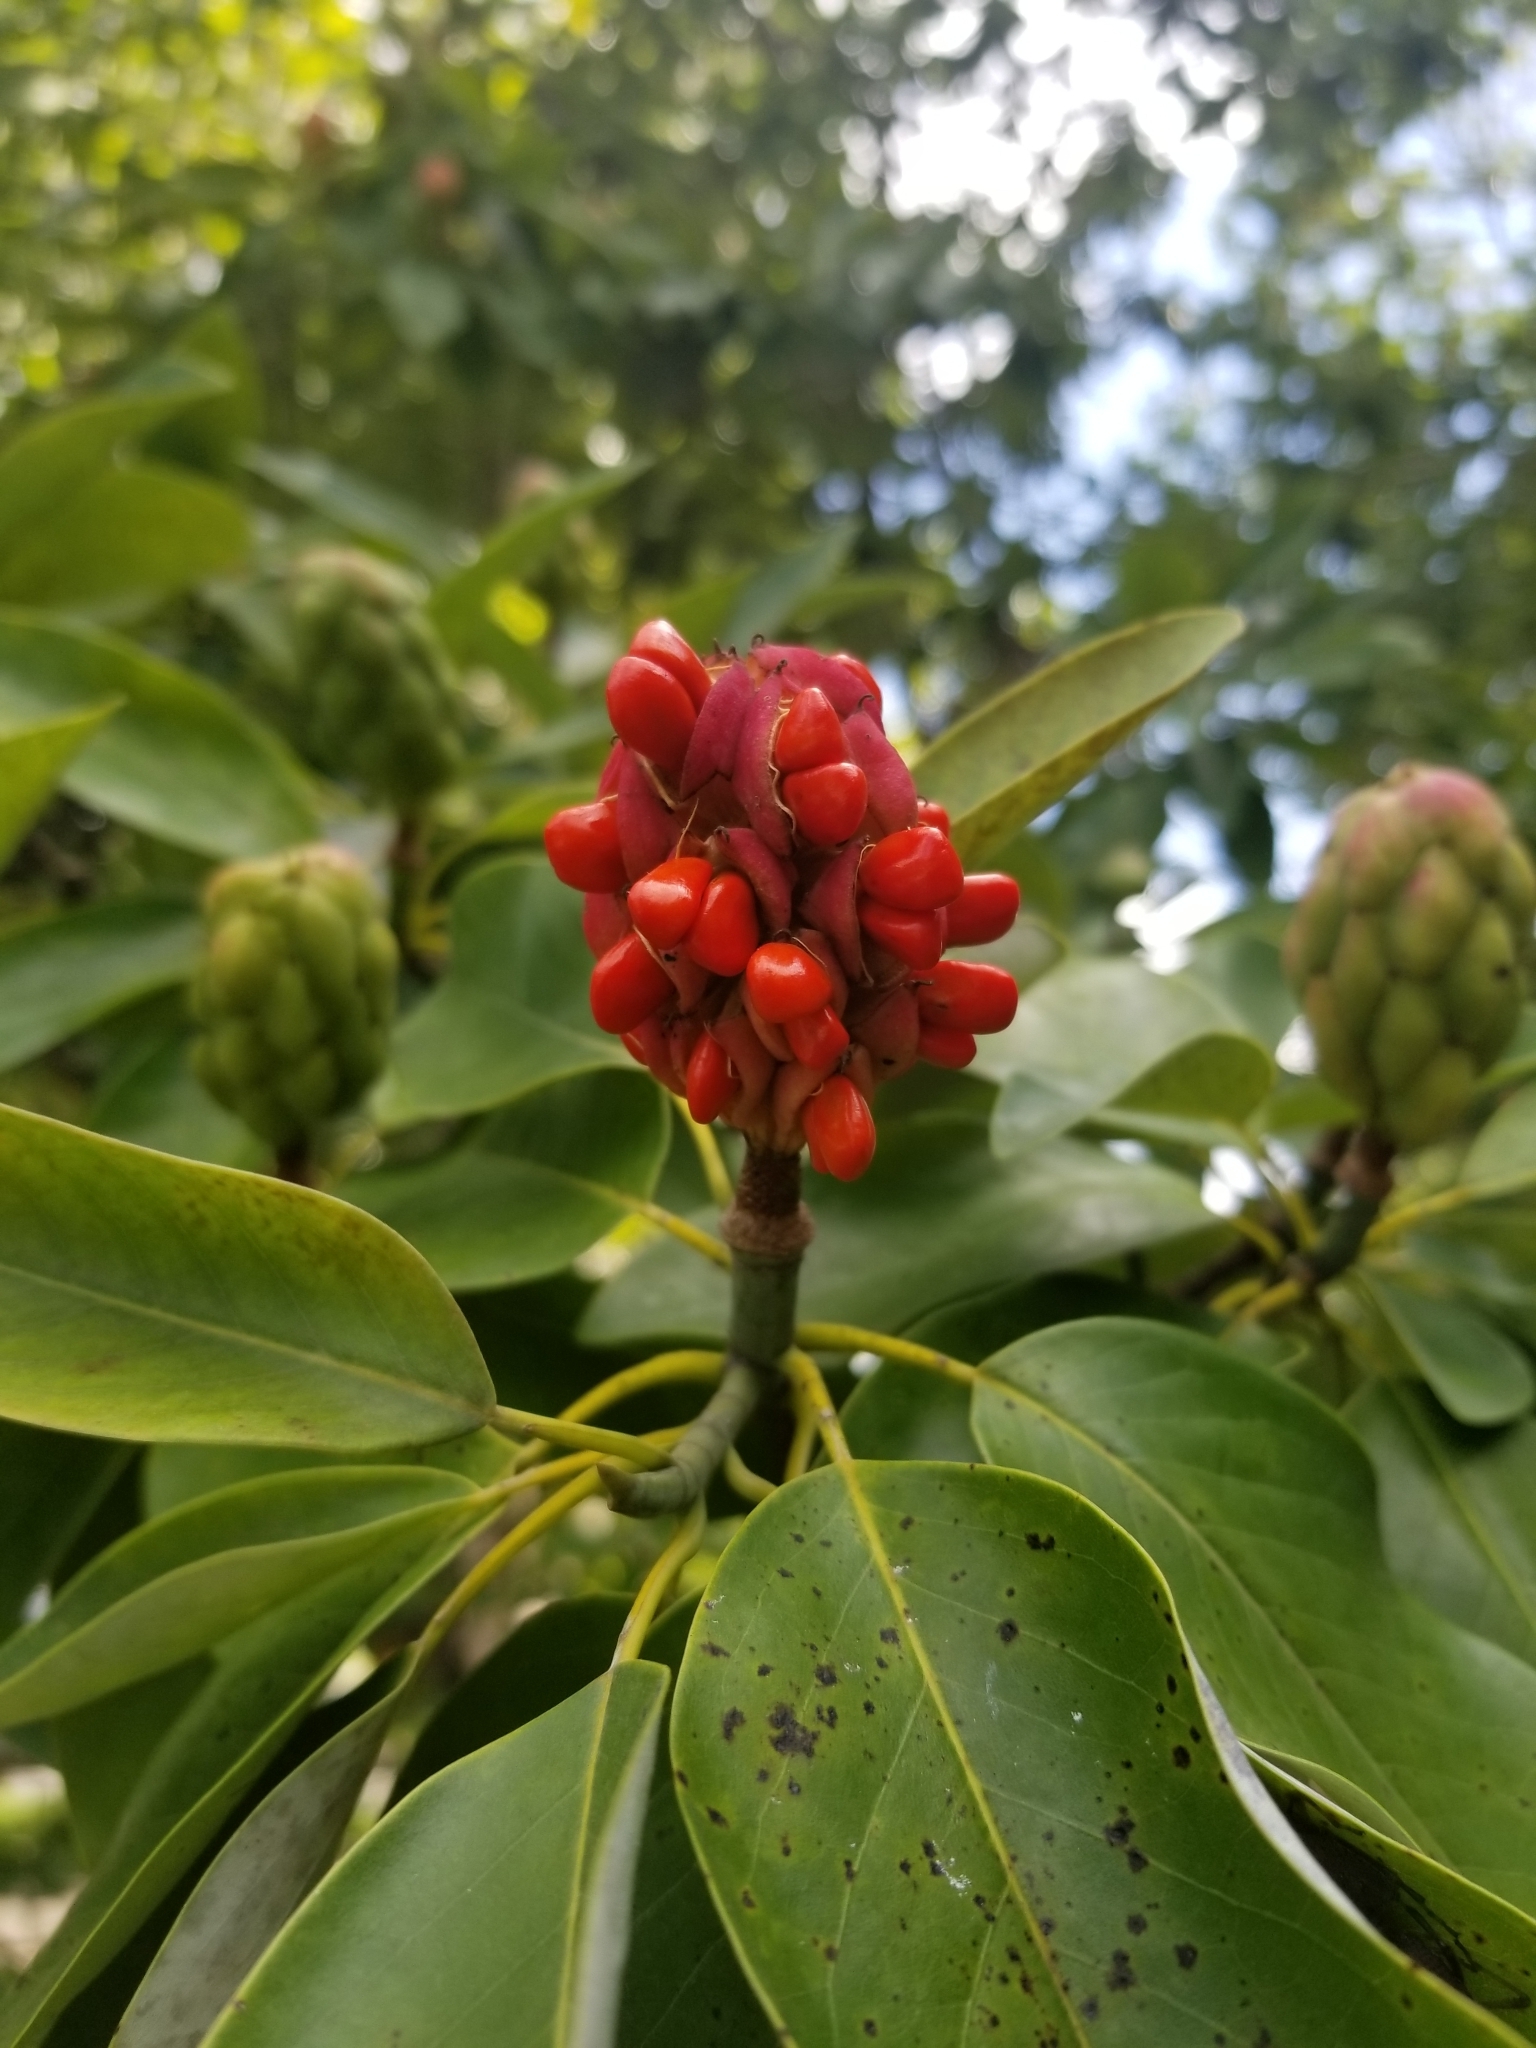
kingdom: Plantae
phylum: Tracheophyta
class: Magnoliopsida
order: Magnoliales
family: Magnoliaceae
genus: Magnolia
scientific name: Magnolia virginiana
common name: Swamp bay
